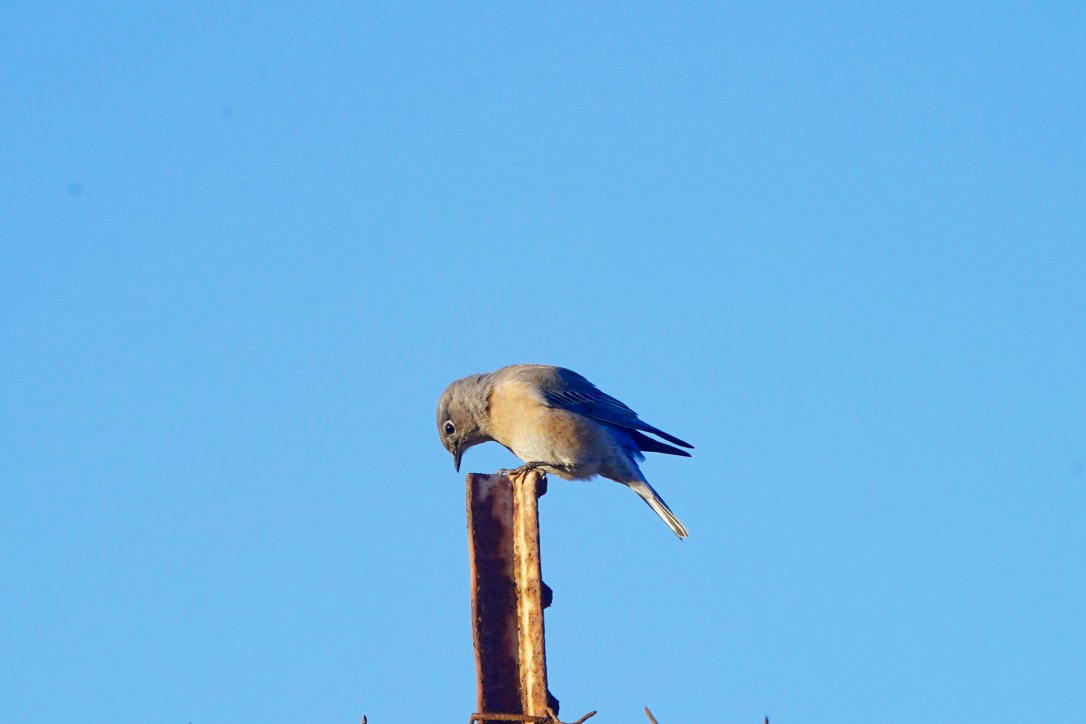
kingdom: Animalia
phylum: Chordata
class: Aves
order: Passeriformes
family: Turdidae
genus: Sialia
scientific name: Sialia mexicana
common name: Western bluebird
